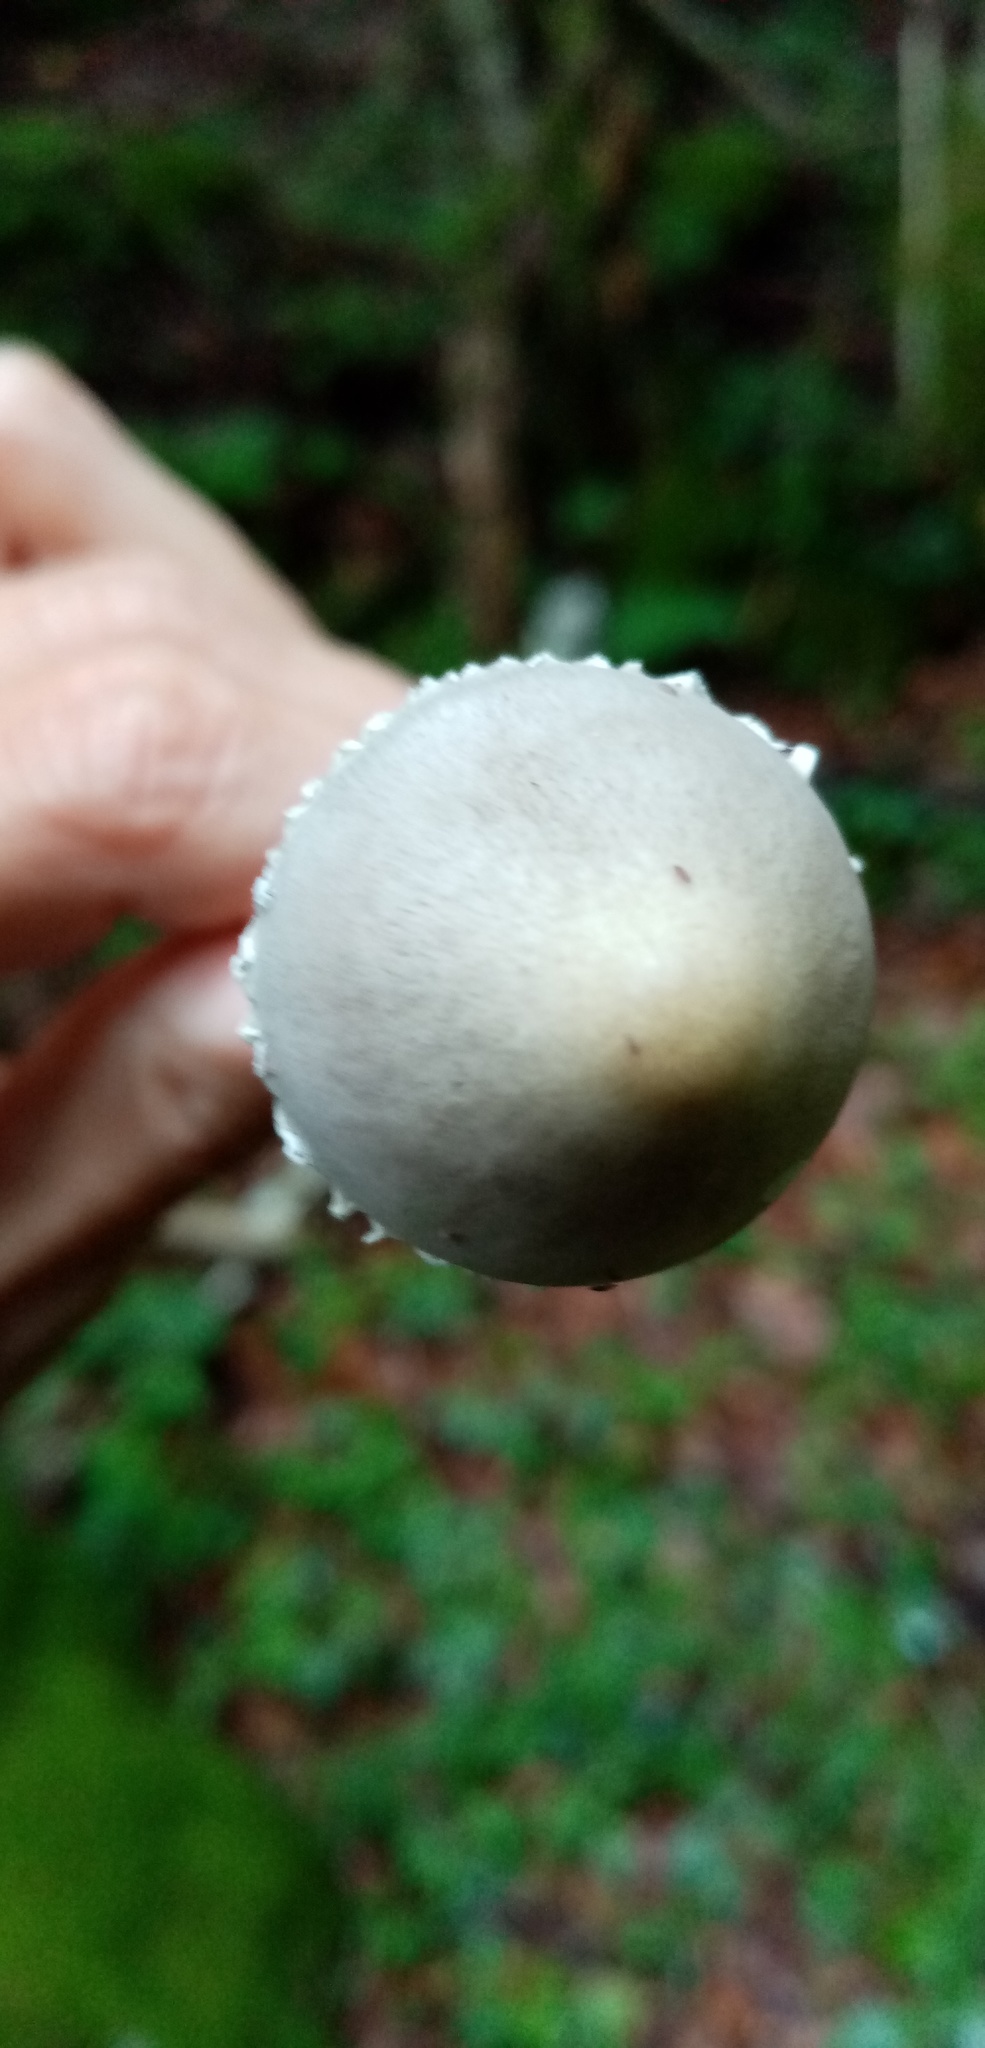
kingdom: Fungi
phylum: Basidiomycota
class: Agaricomycetes
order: Agaricales
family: Bolbitiaceae
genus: Panaeolus
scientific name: Panaeolus papilionaceus
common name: Petticoat mottlegill
